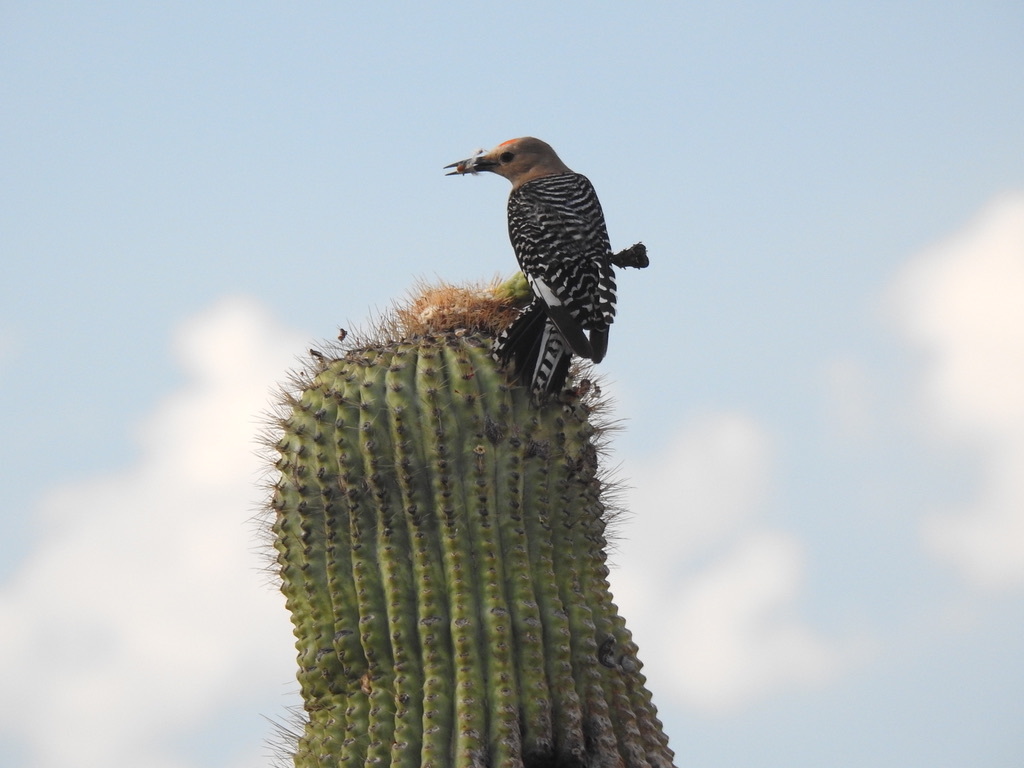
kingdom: Animalia
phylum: Chordata
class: Aves
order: Piciformes
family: Picidae
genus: Melanerpes
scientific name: Melanerpes uropygialis
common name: Gila woodpecker
